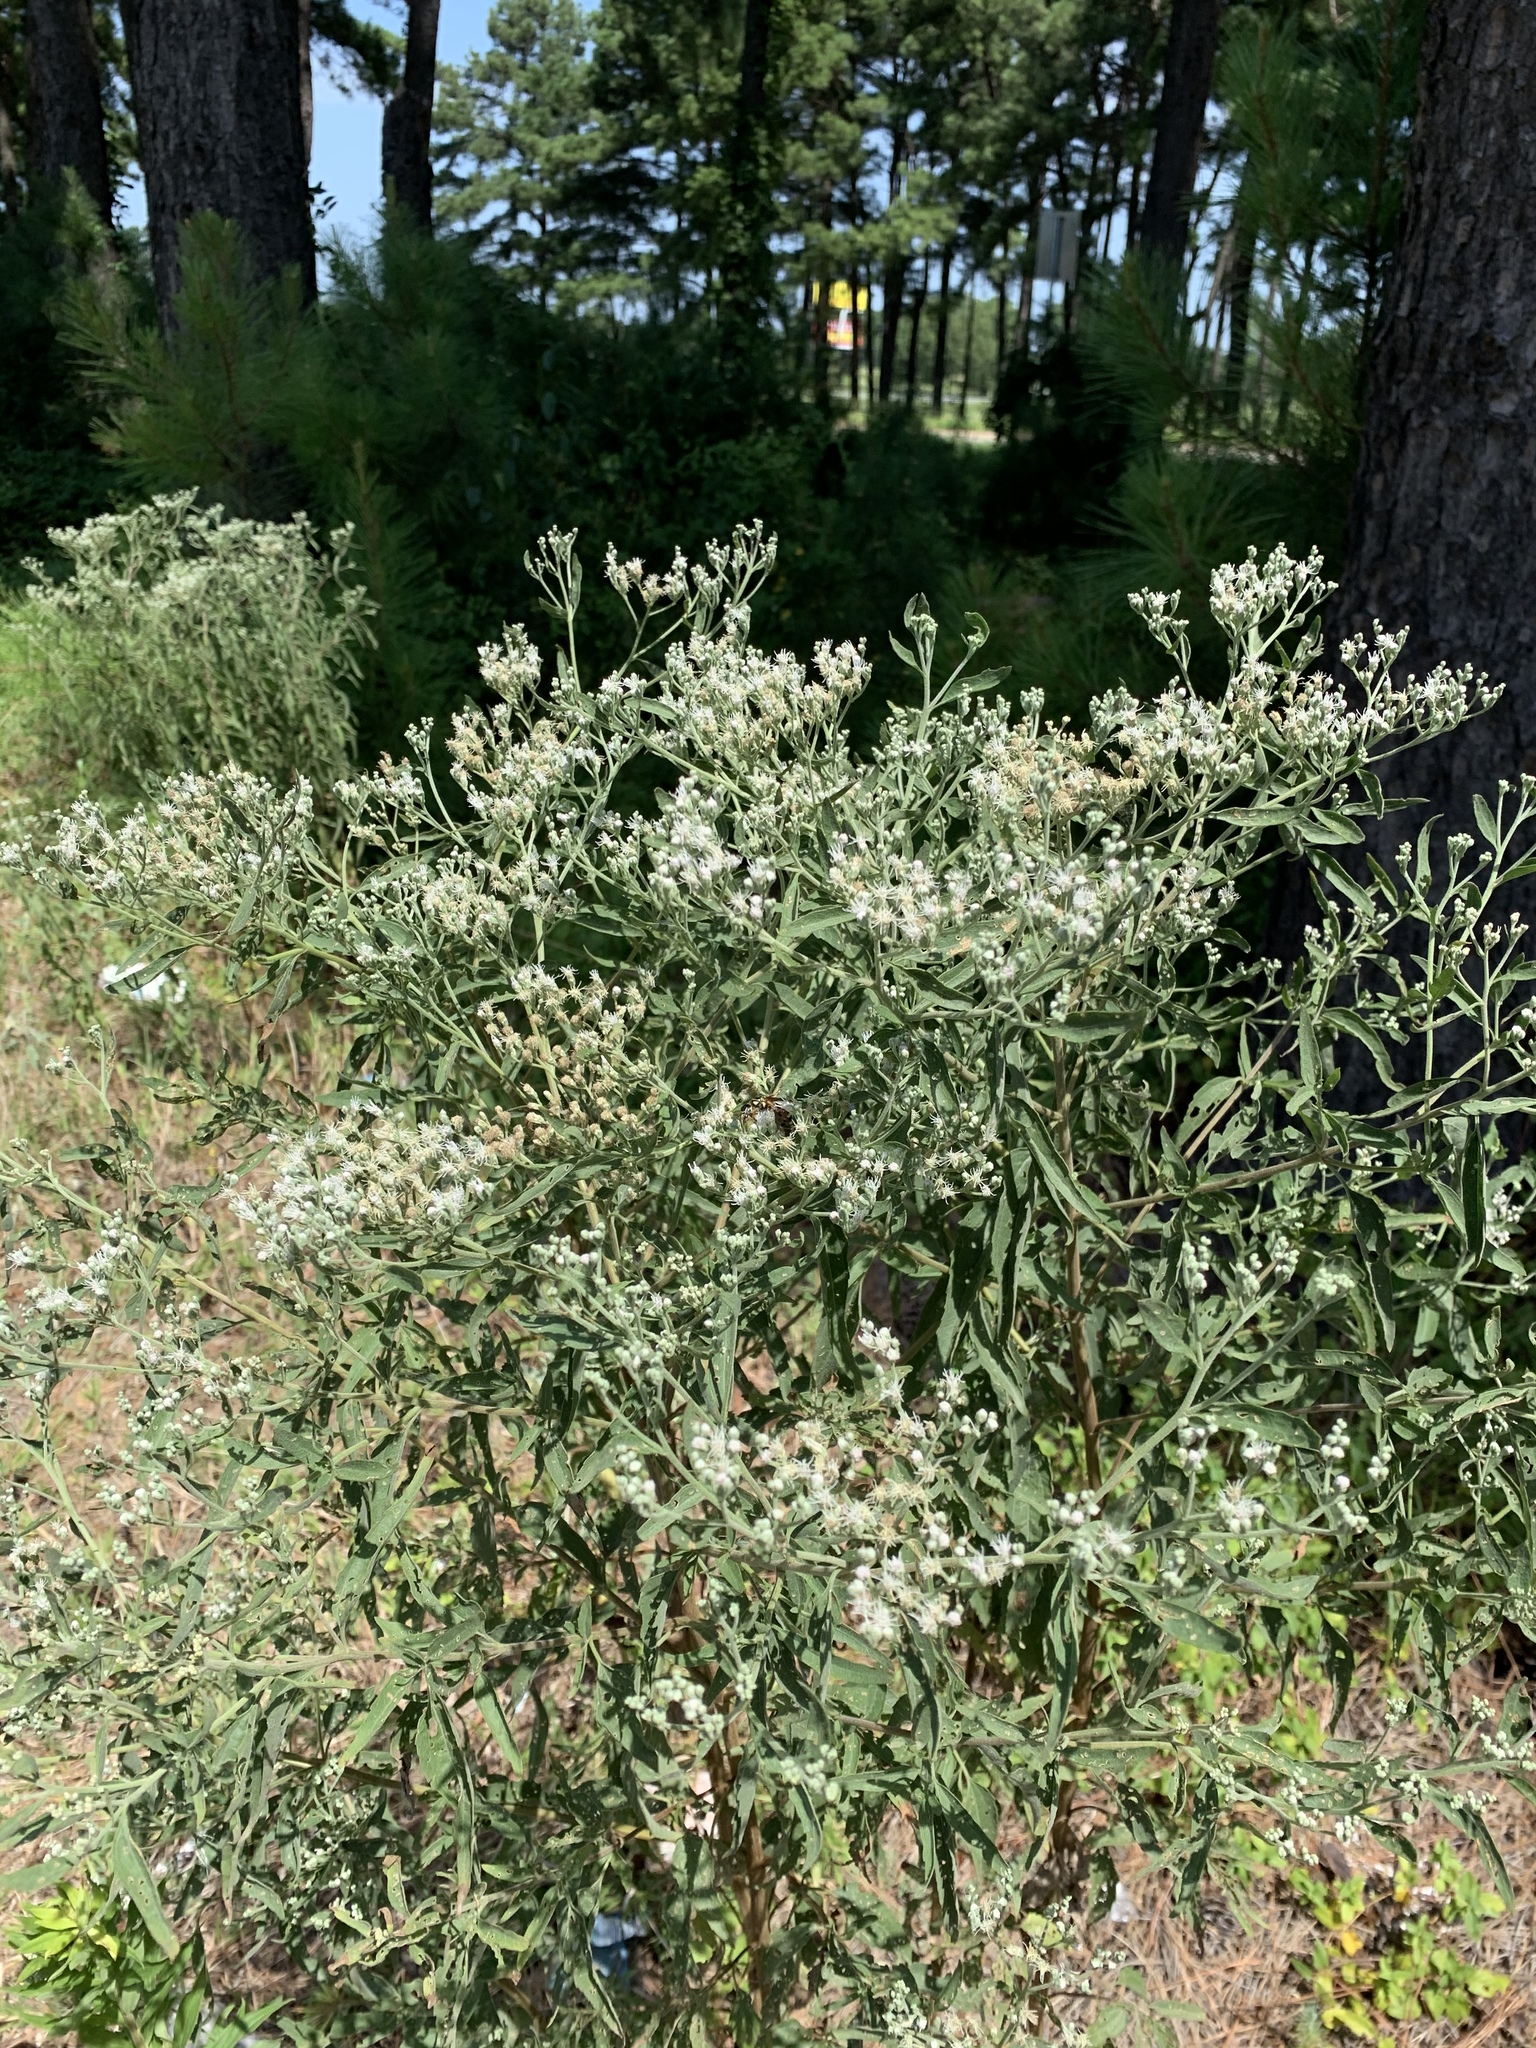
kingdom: Plantae
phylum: Tracheophyta
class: Magnoliopsida
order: Asterales
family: Asteraceae
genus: Eupatorium
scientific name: Eupatorium serotinum
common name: Late boneset
